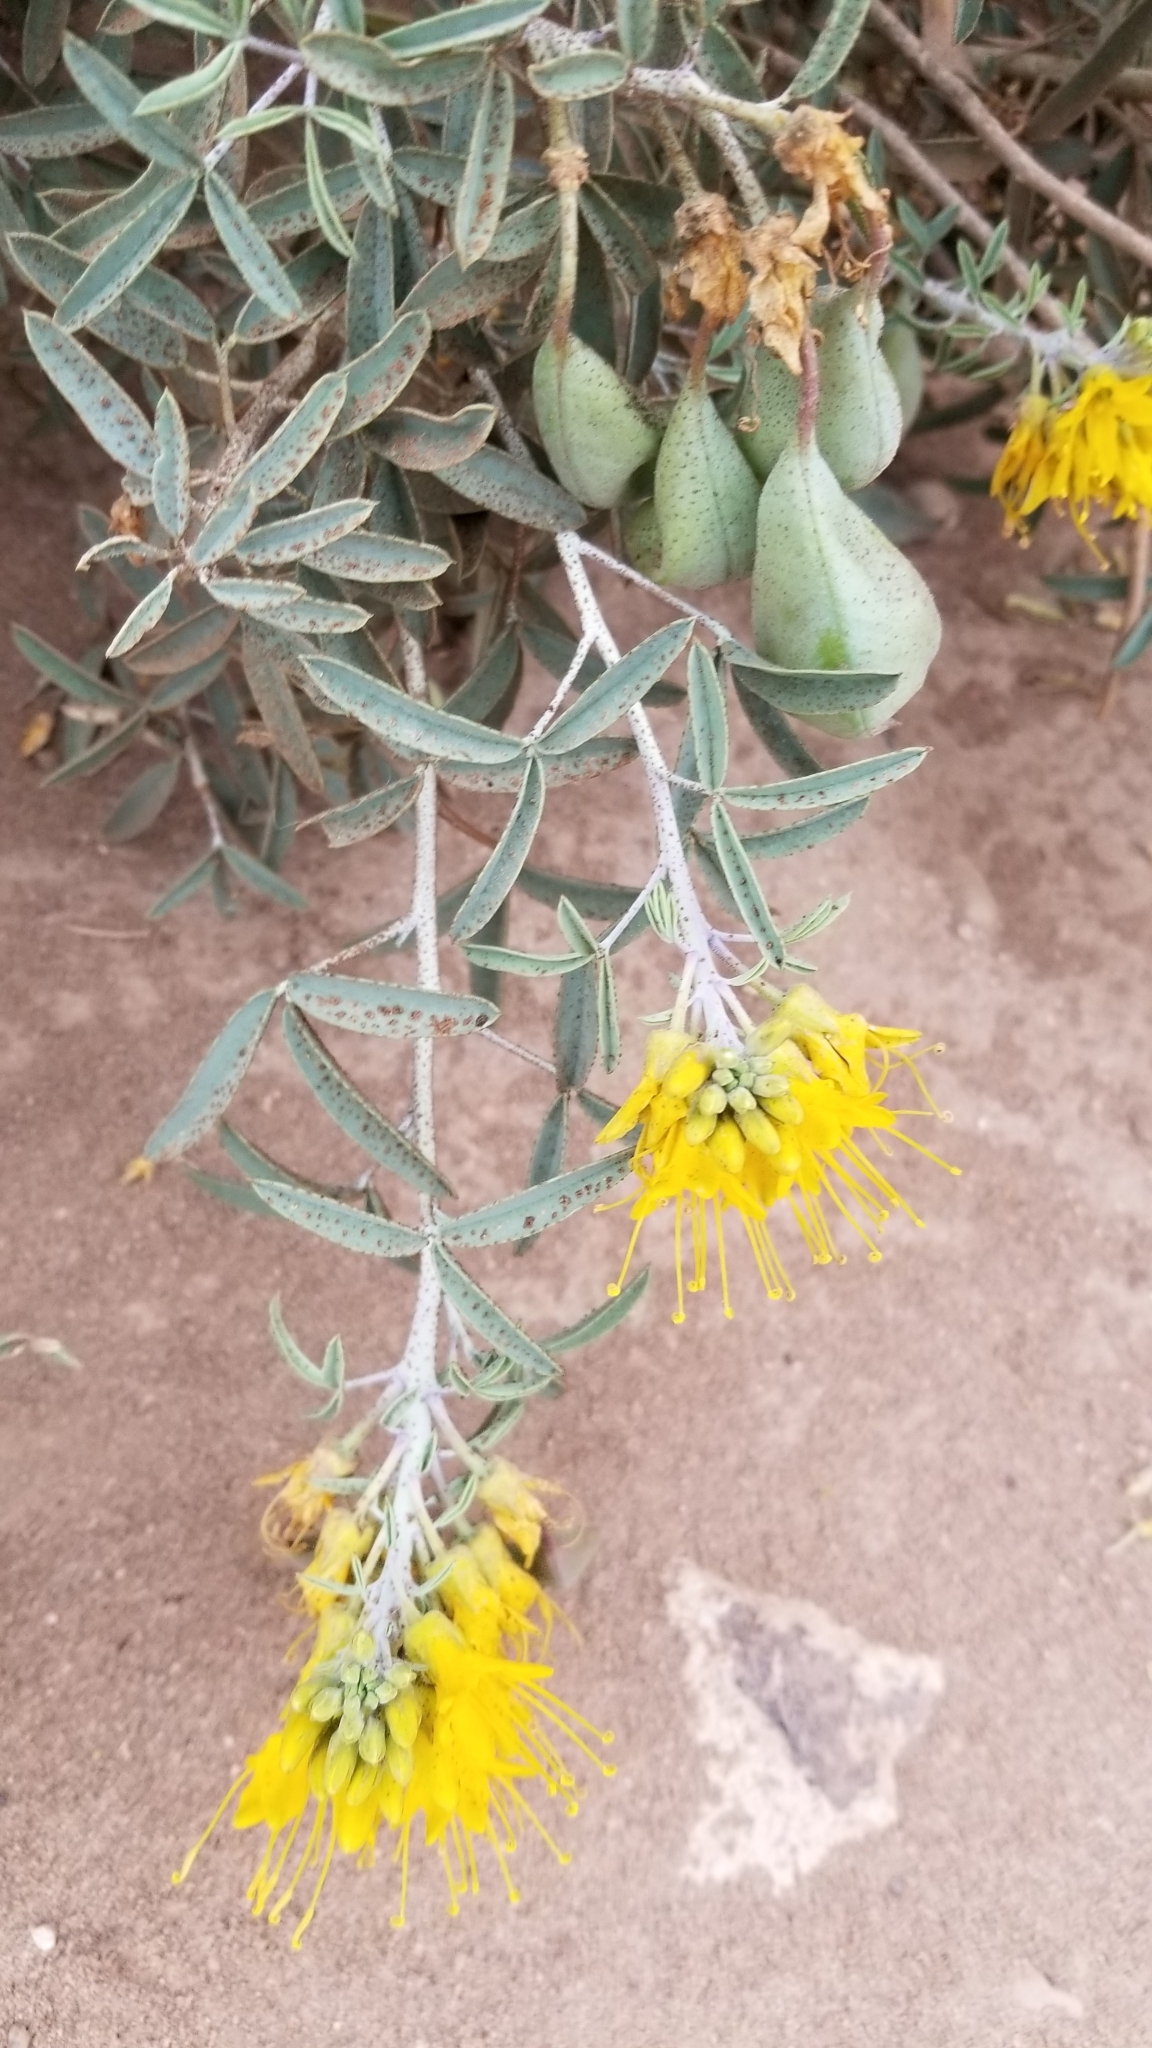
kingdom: Plantae
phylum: Tracheophyta
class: Magnoliopsida
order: Brassicales
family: Cleomaceae
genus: Cleomella
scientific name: Cleomella arborea
